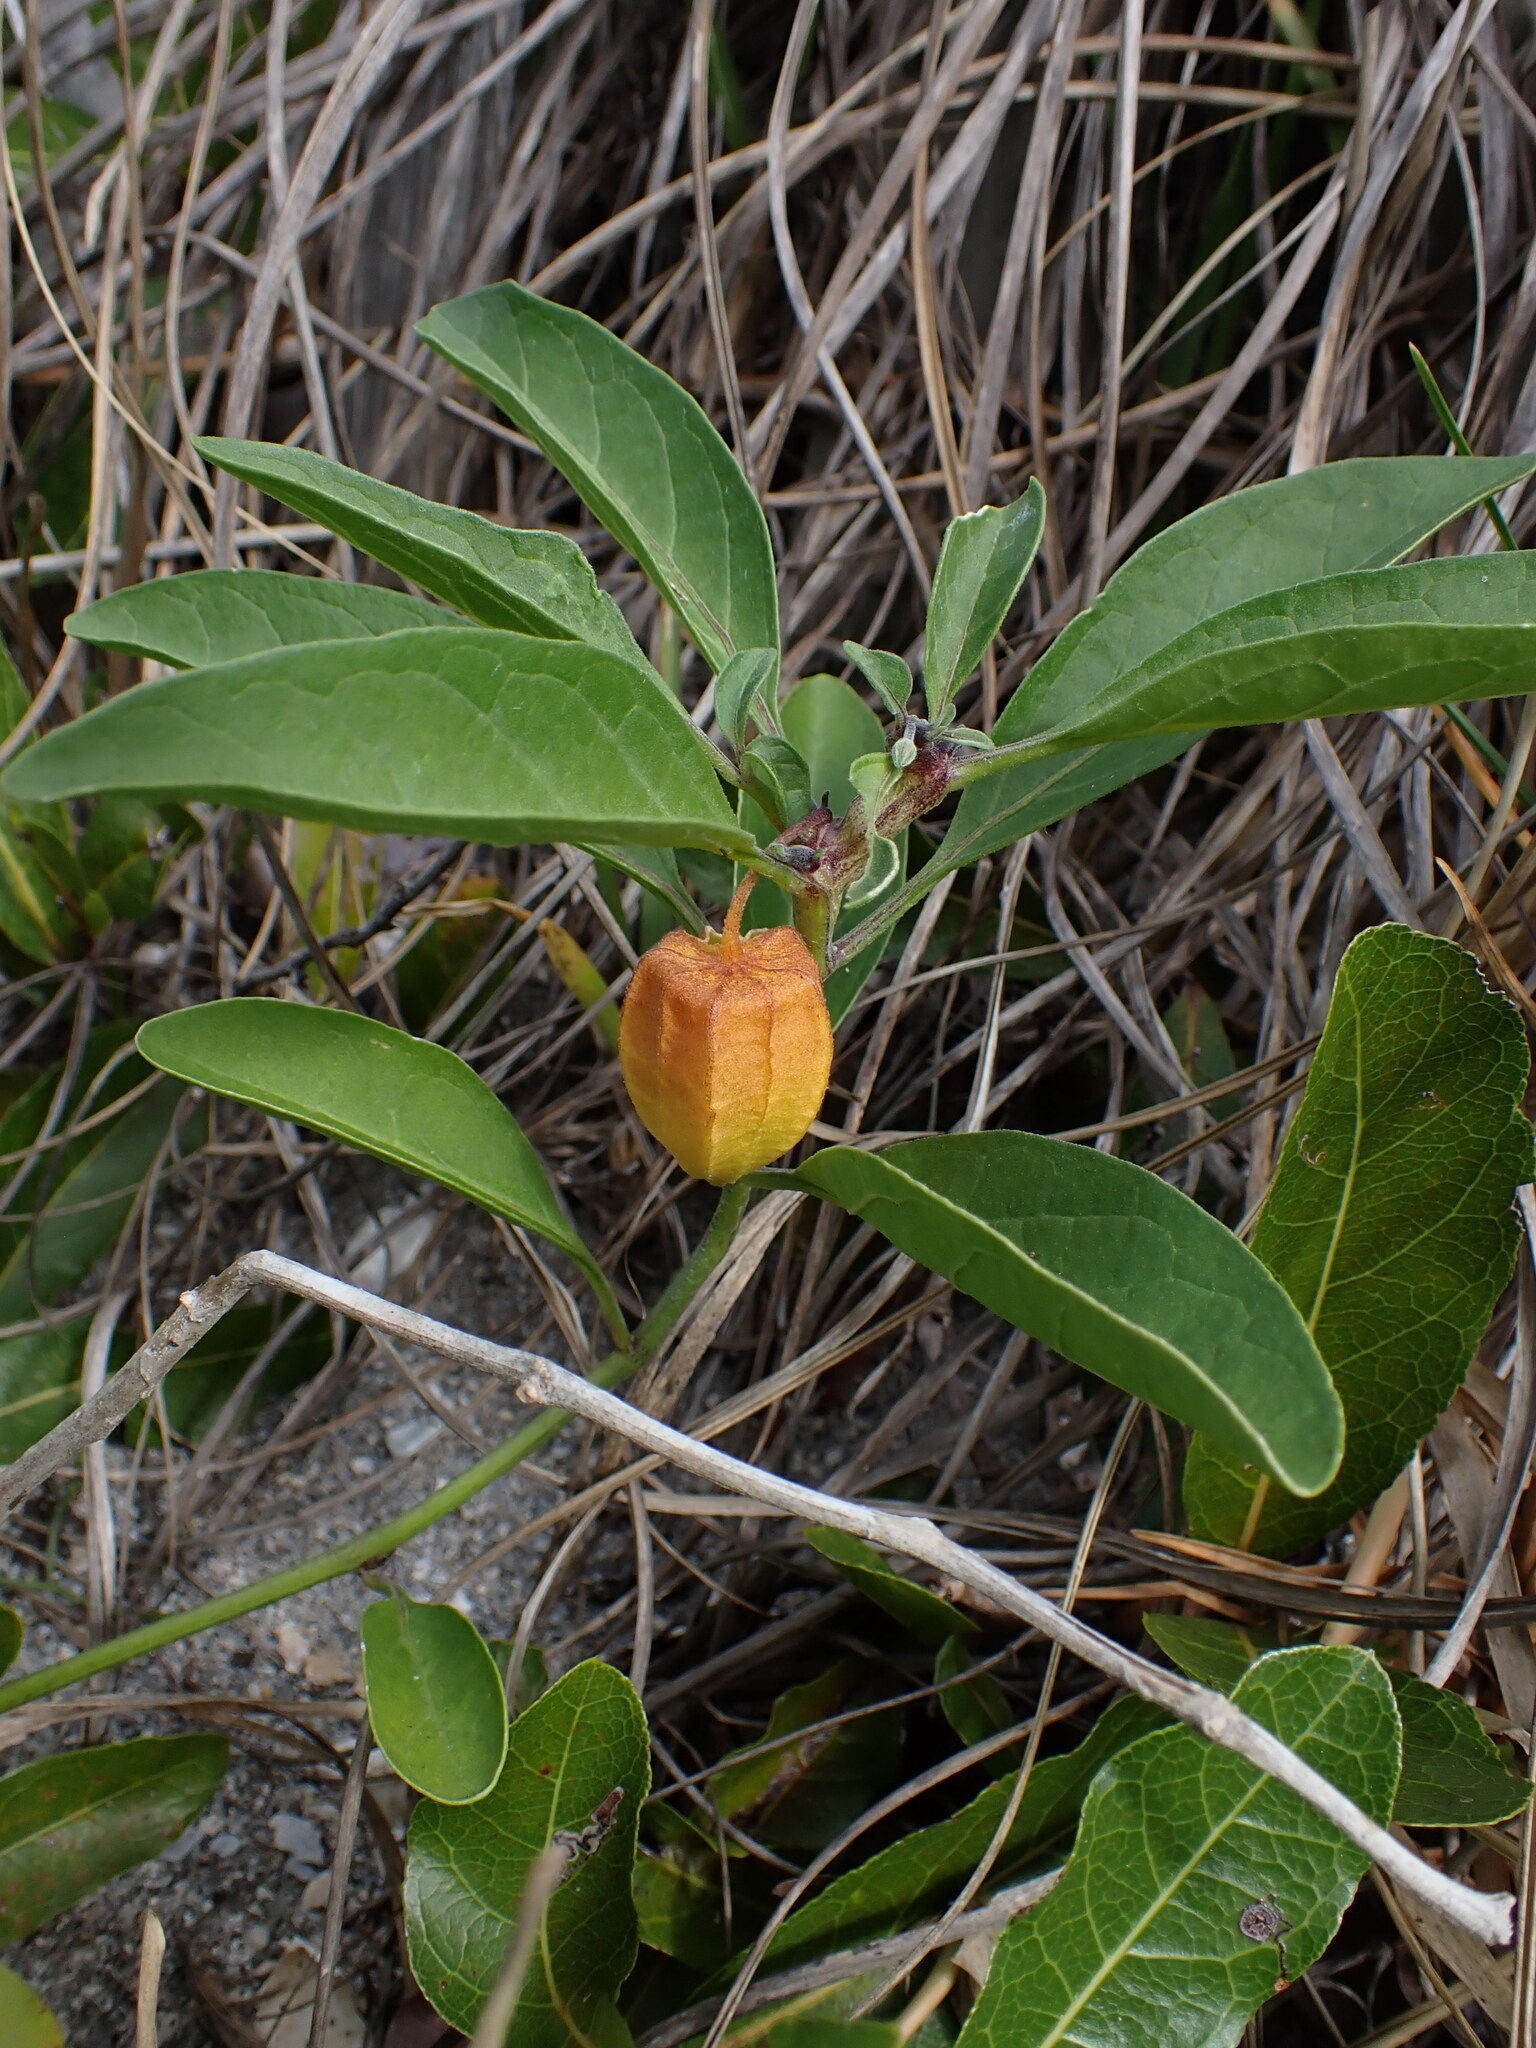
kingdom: Plantae
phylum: Tracheophyta
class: Magnoliopsida
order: Solanales
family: Solanaceae
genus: Physalis
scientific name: Physalis walteri
